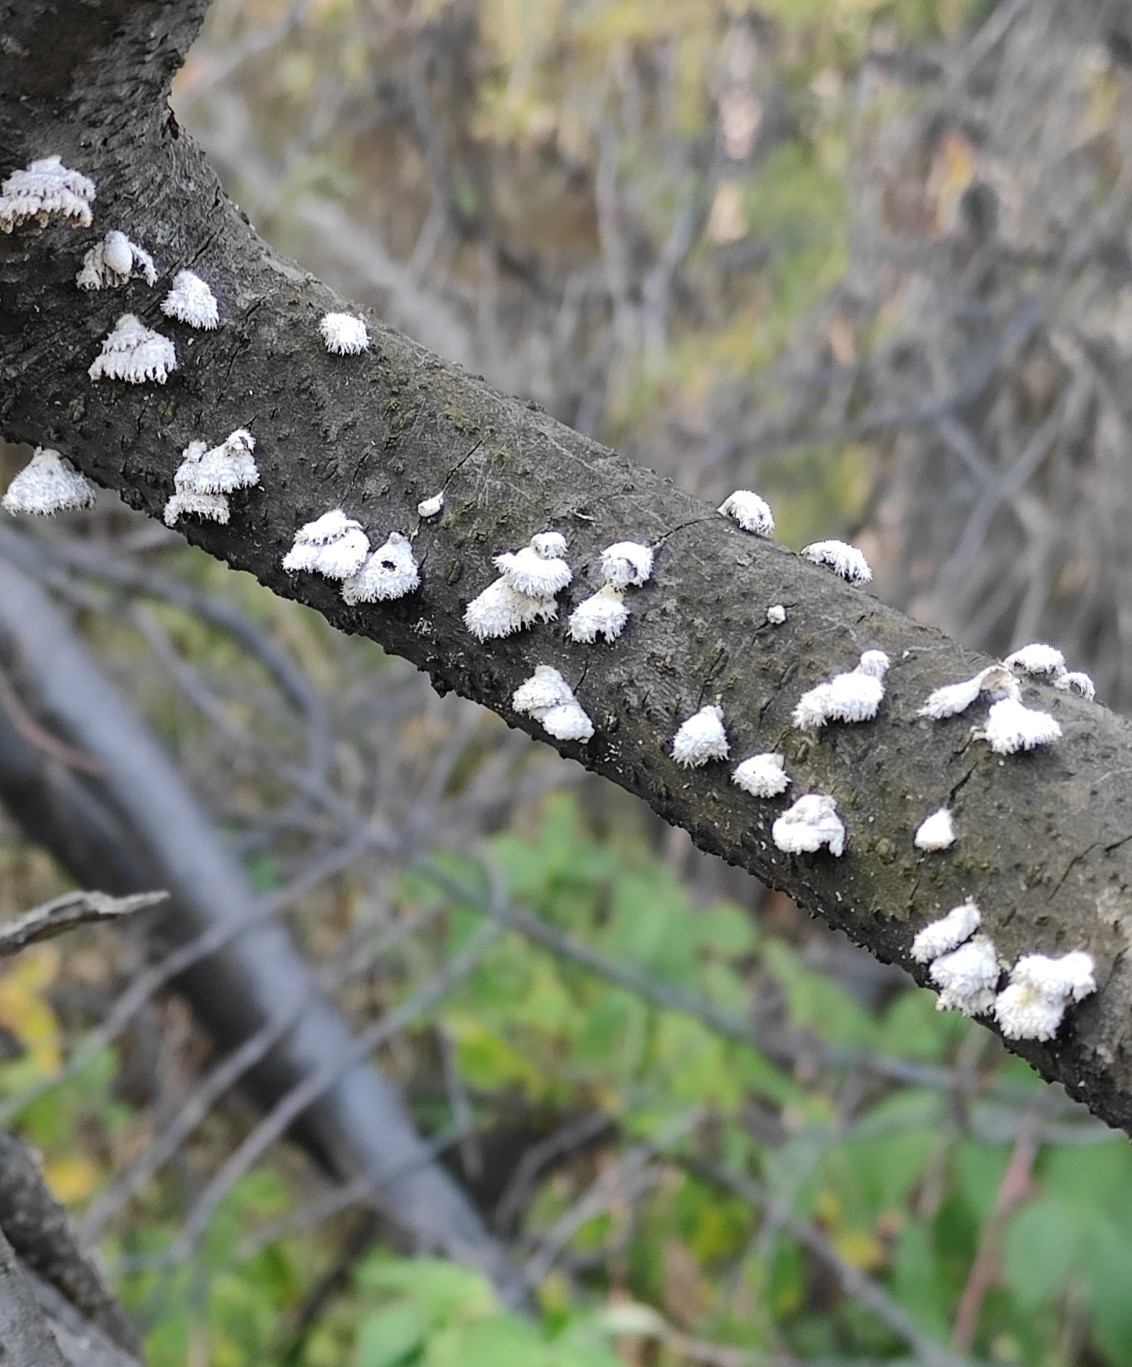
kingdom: Fungi
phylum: Basidiomycota
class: Agaricomycetes
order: Agaricales
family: Schizophyllaceae
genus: Schizophyllum
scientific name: Schizophyllum commune
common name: Common porecrust
